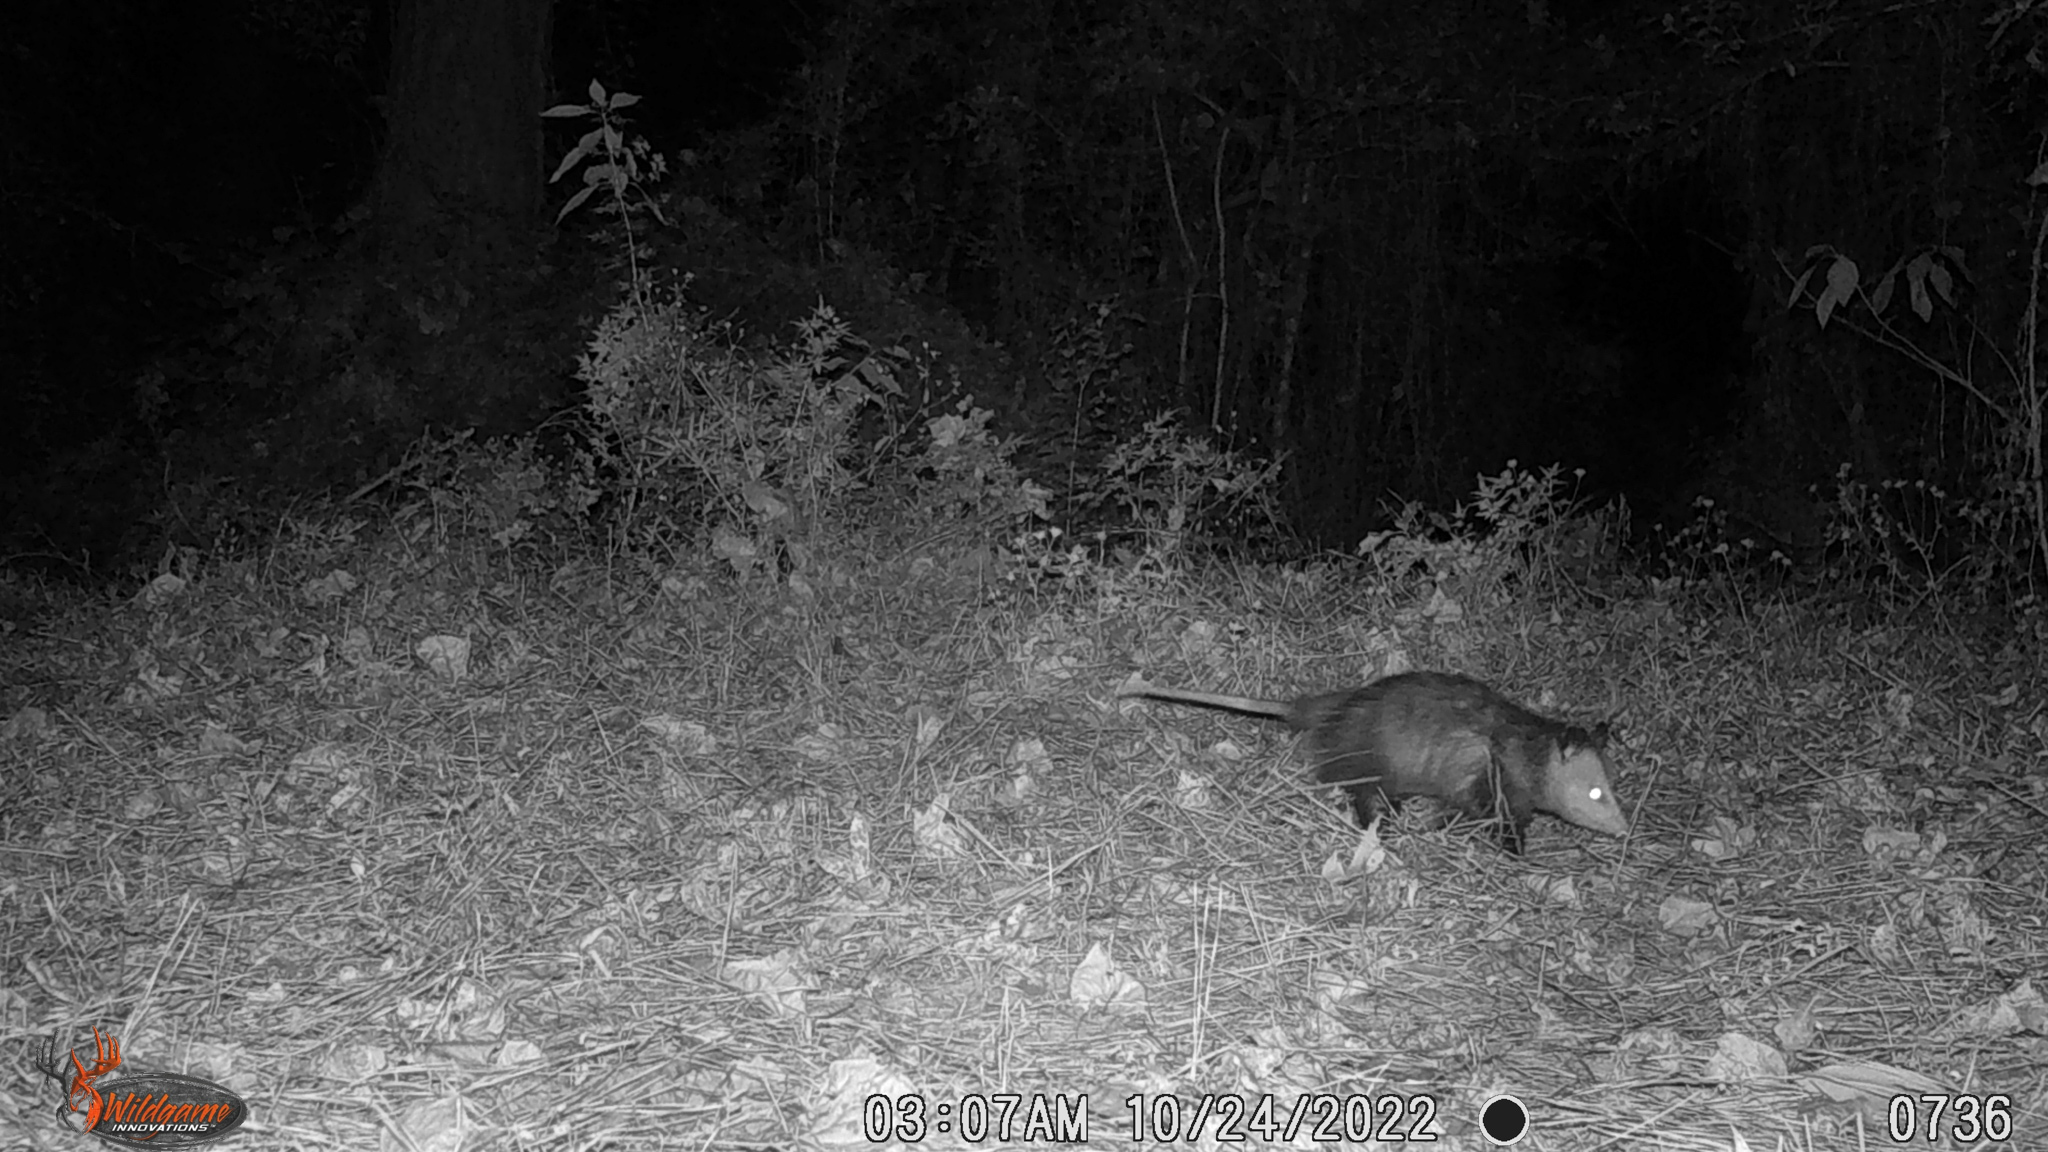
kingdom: Animalia
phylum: Chordata
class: Mammalia
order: Didelphimorphia
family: Didelphidae
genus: Didelphis
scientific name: Didelphis virginiana
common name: Virginia opossum
